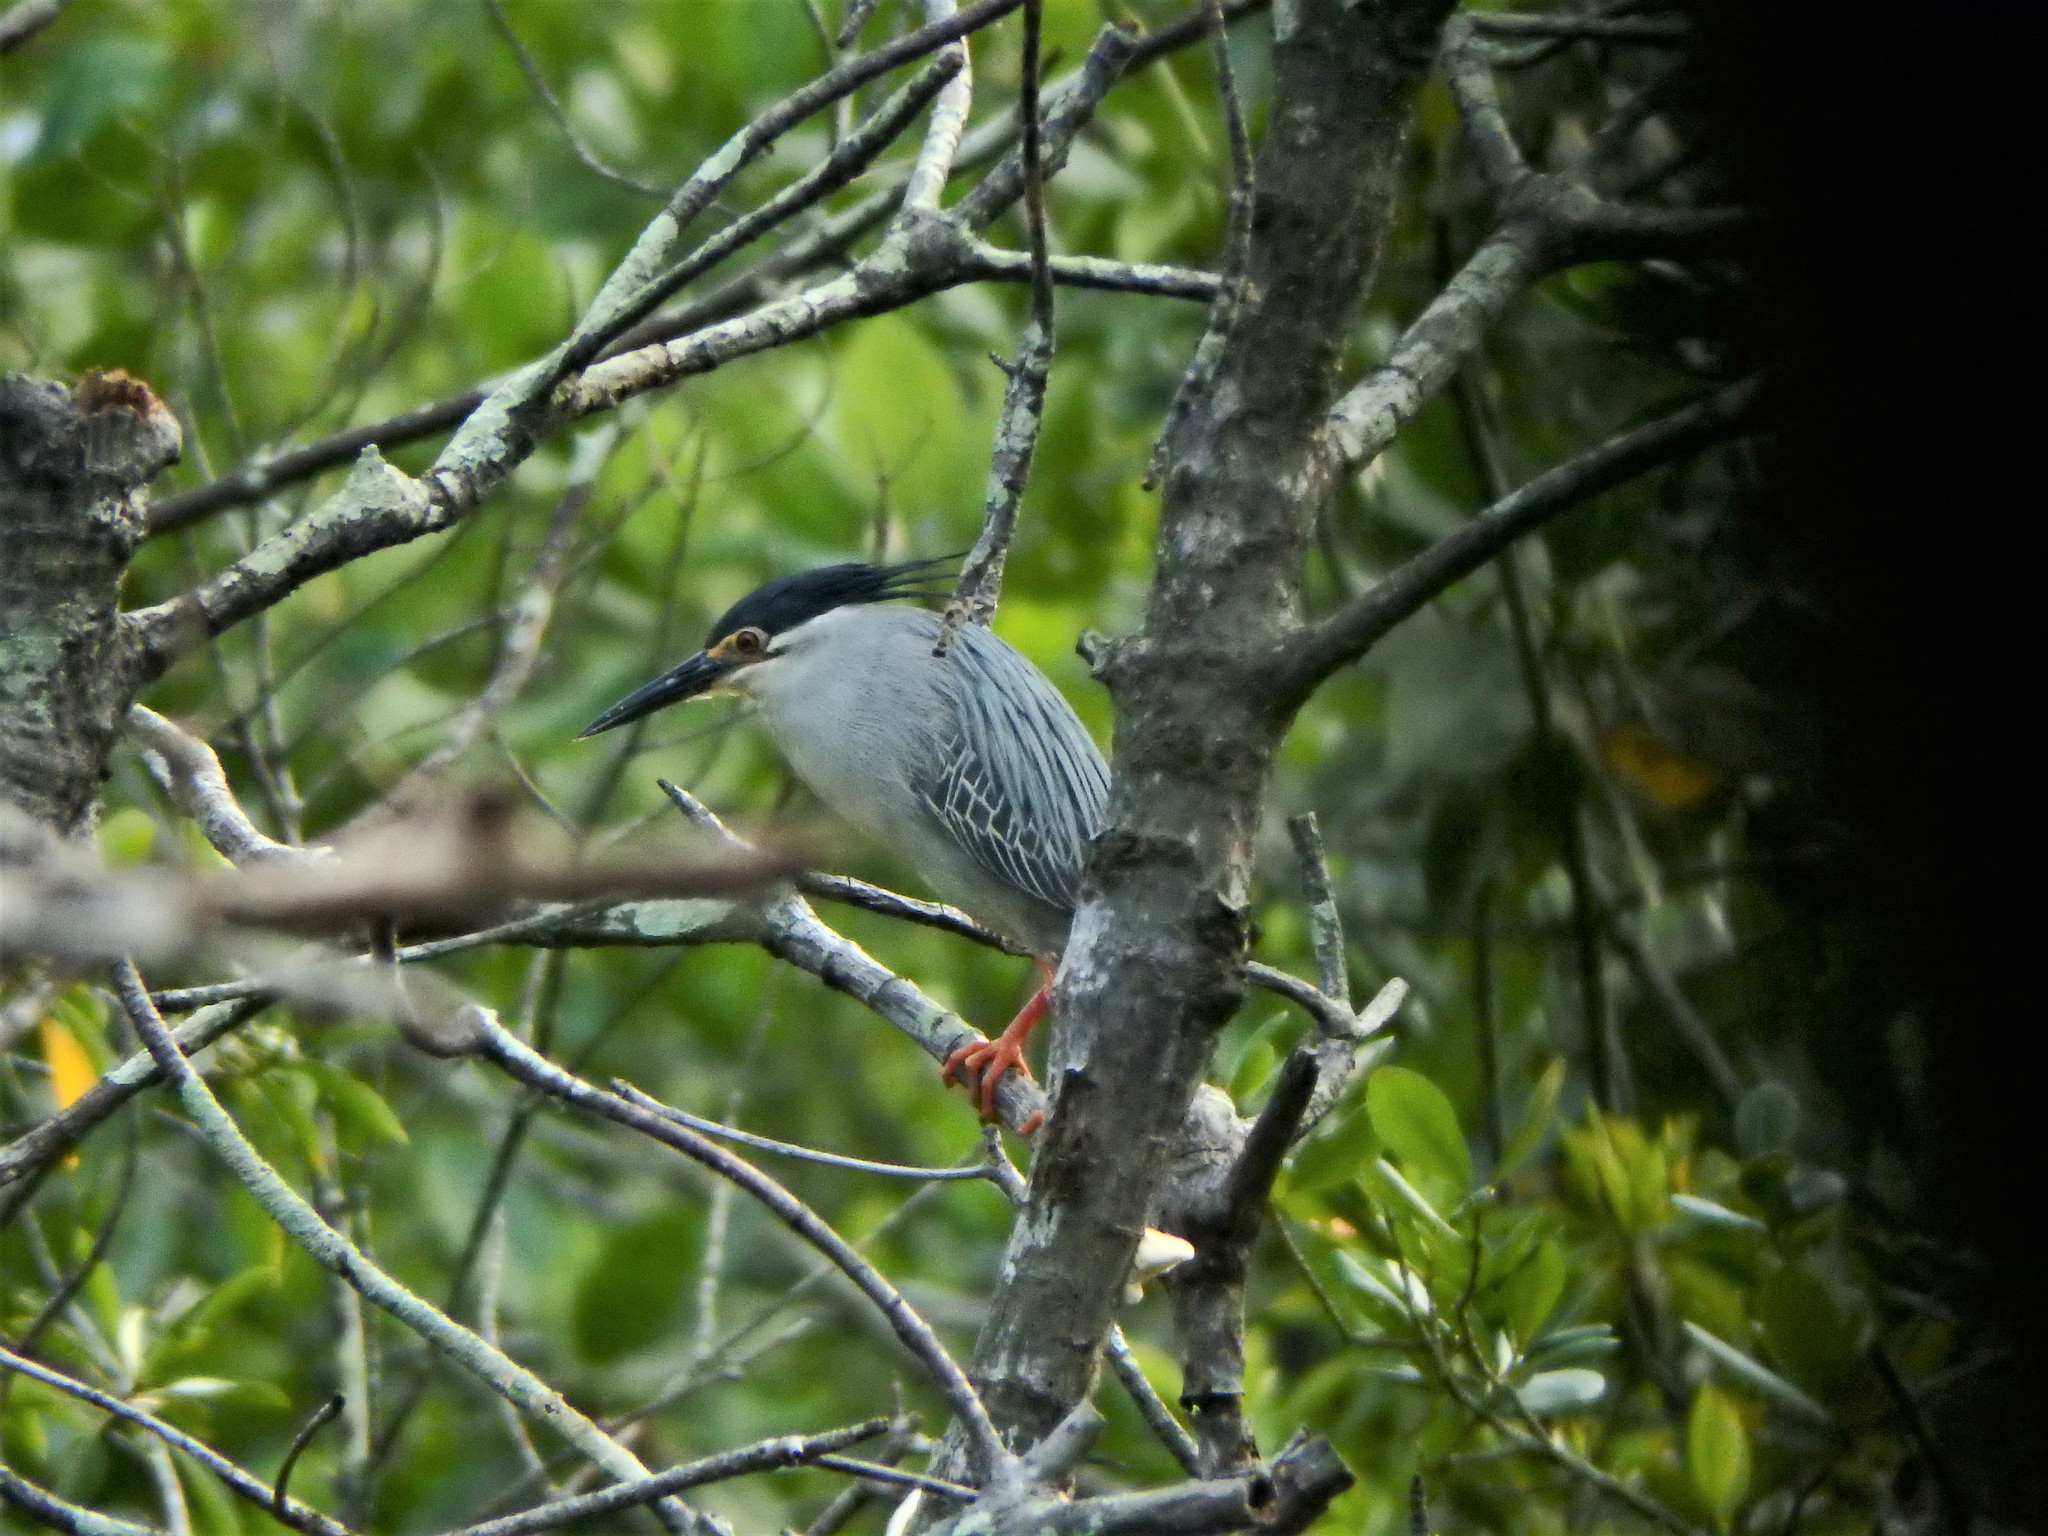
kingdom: Animalia
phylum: Chordata
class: Aves
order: Pelecaniformes
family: Ardeidae
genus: Butorides
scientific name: Butorides striata
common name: Striated heron
